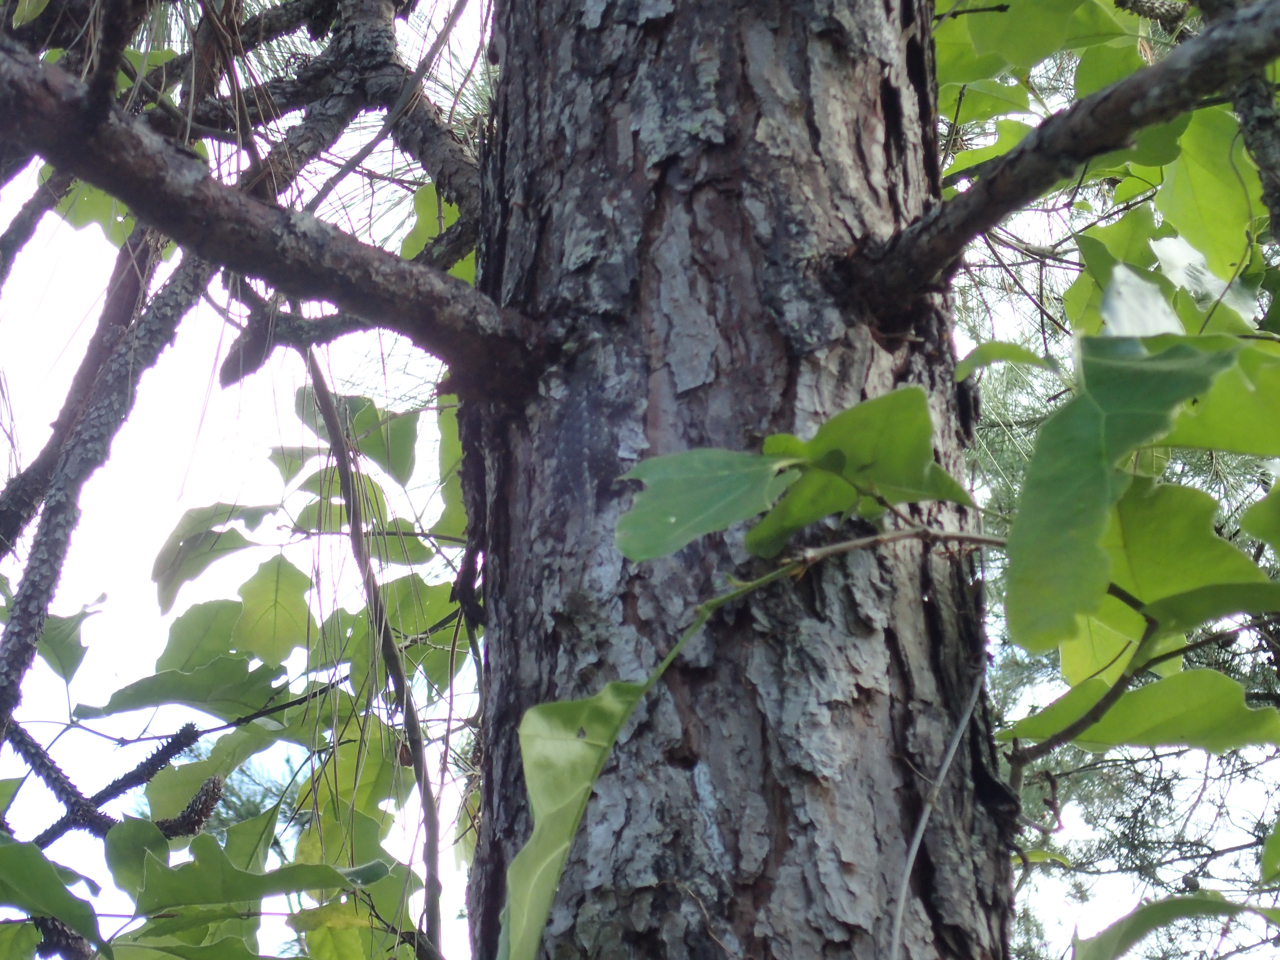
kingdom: Animalia
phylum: Chordata
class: Squamata
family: Phrynosomatidae
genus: Sceloporus
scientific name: Sceloporus undulatus
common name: Eastern fence lizard
